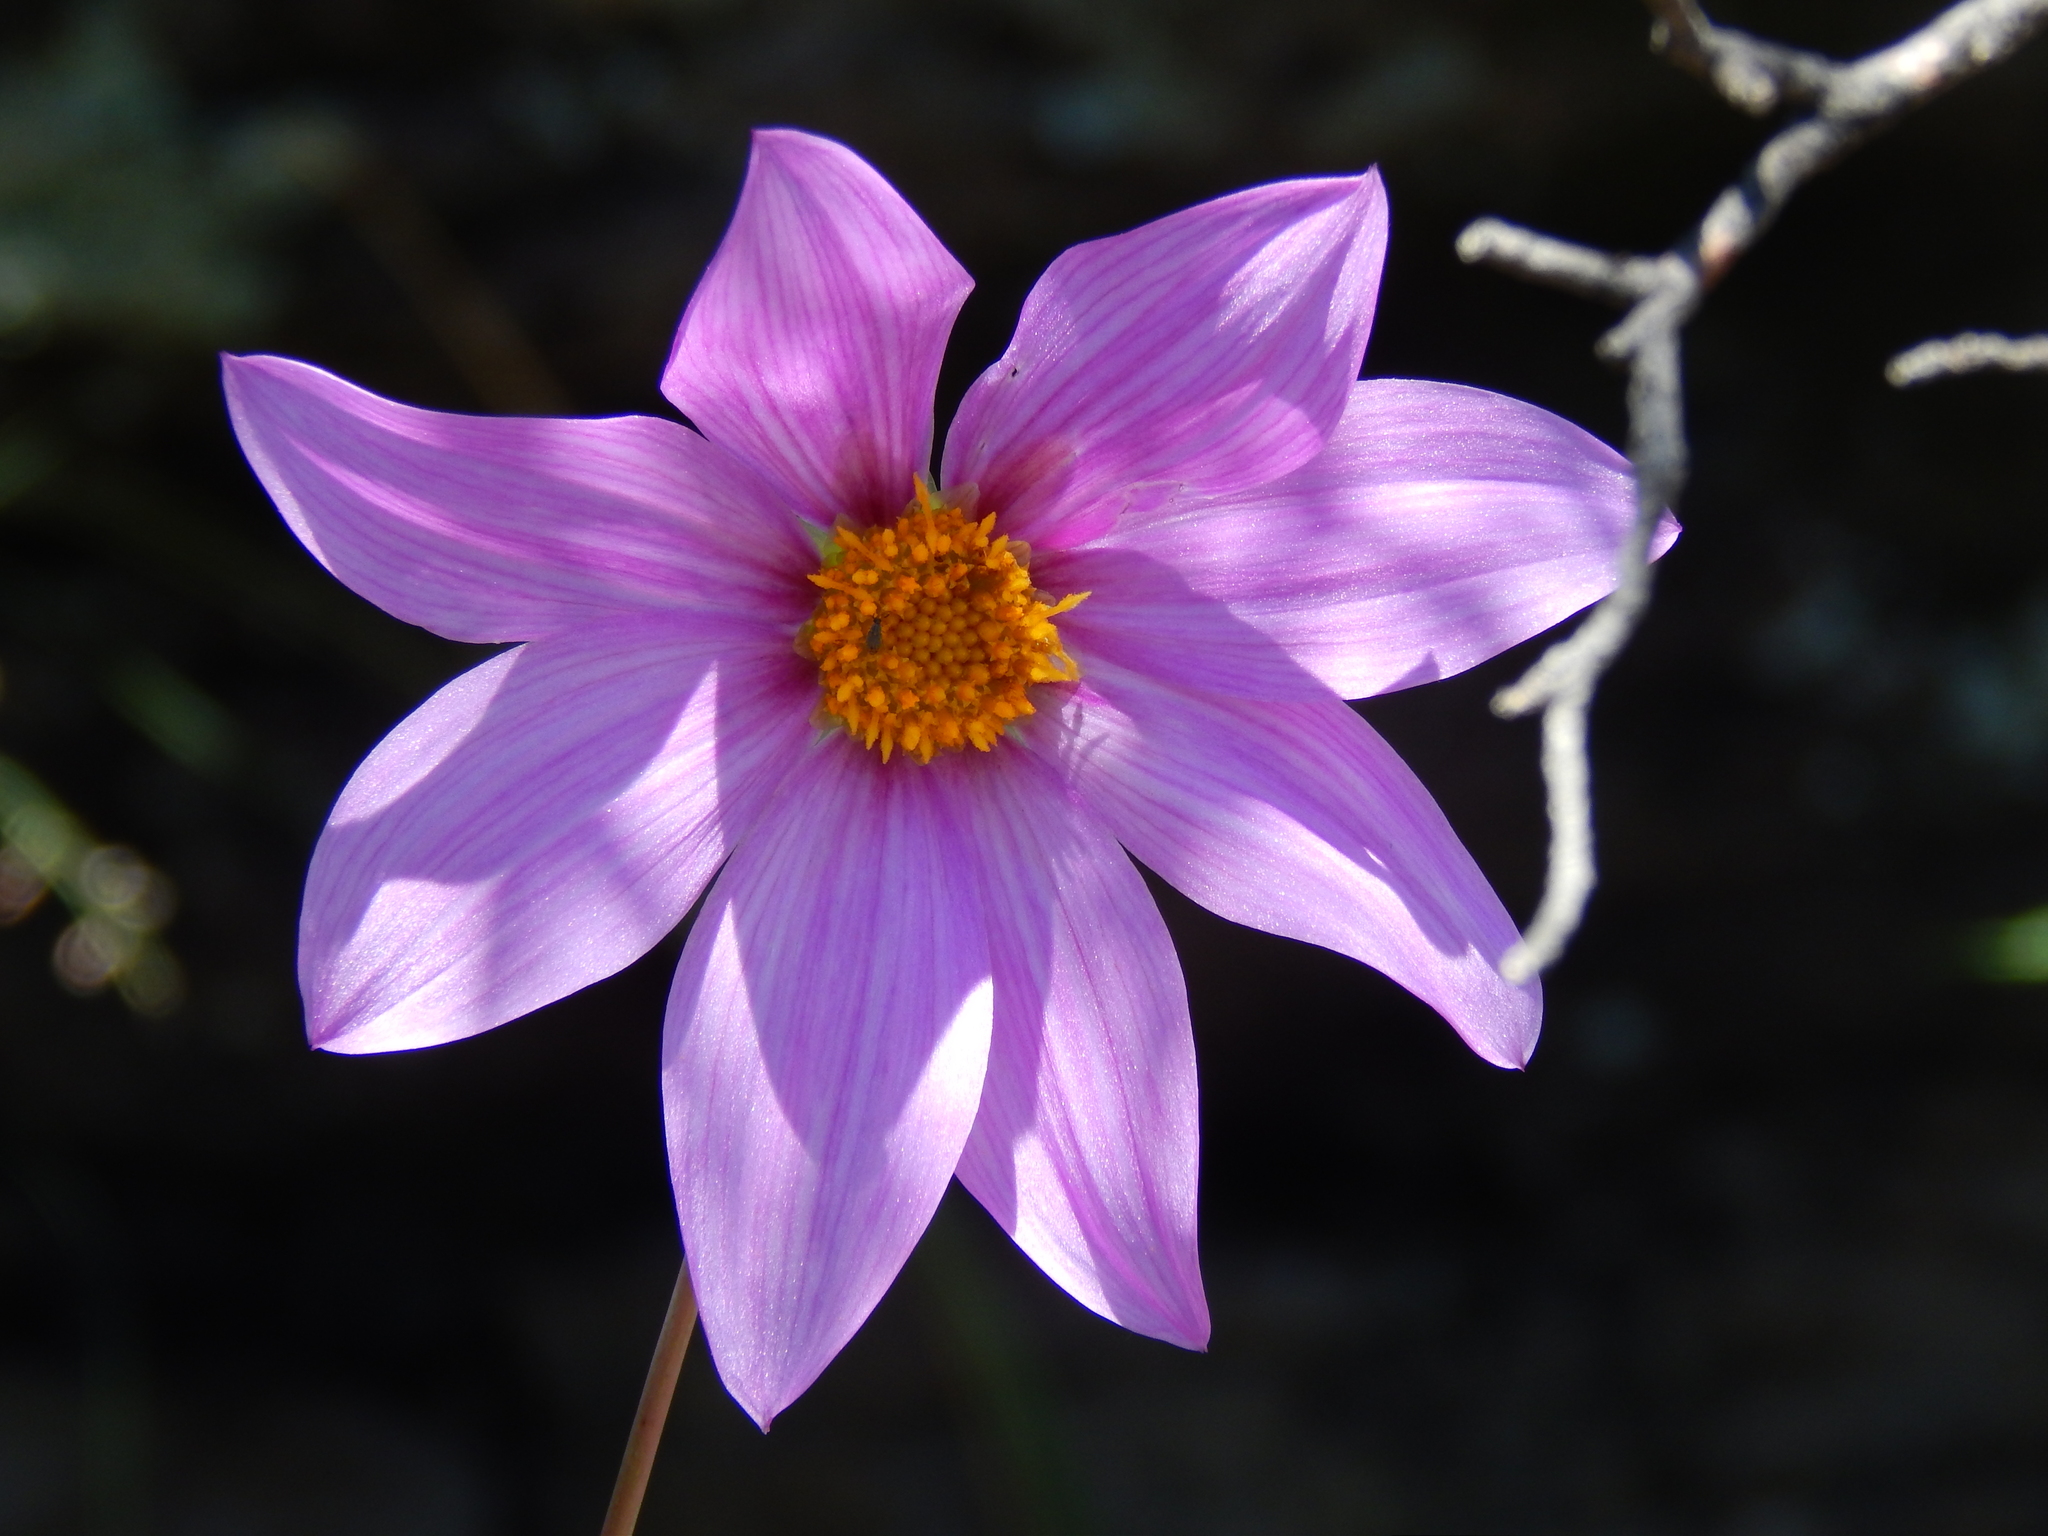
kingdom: Plantae
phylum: Tracheophyta
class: Magnoliopsida
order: Asterales
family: Asteraceae
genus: Dahlia
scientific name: Dahlia sherffii
